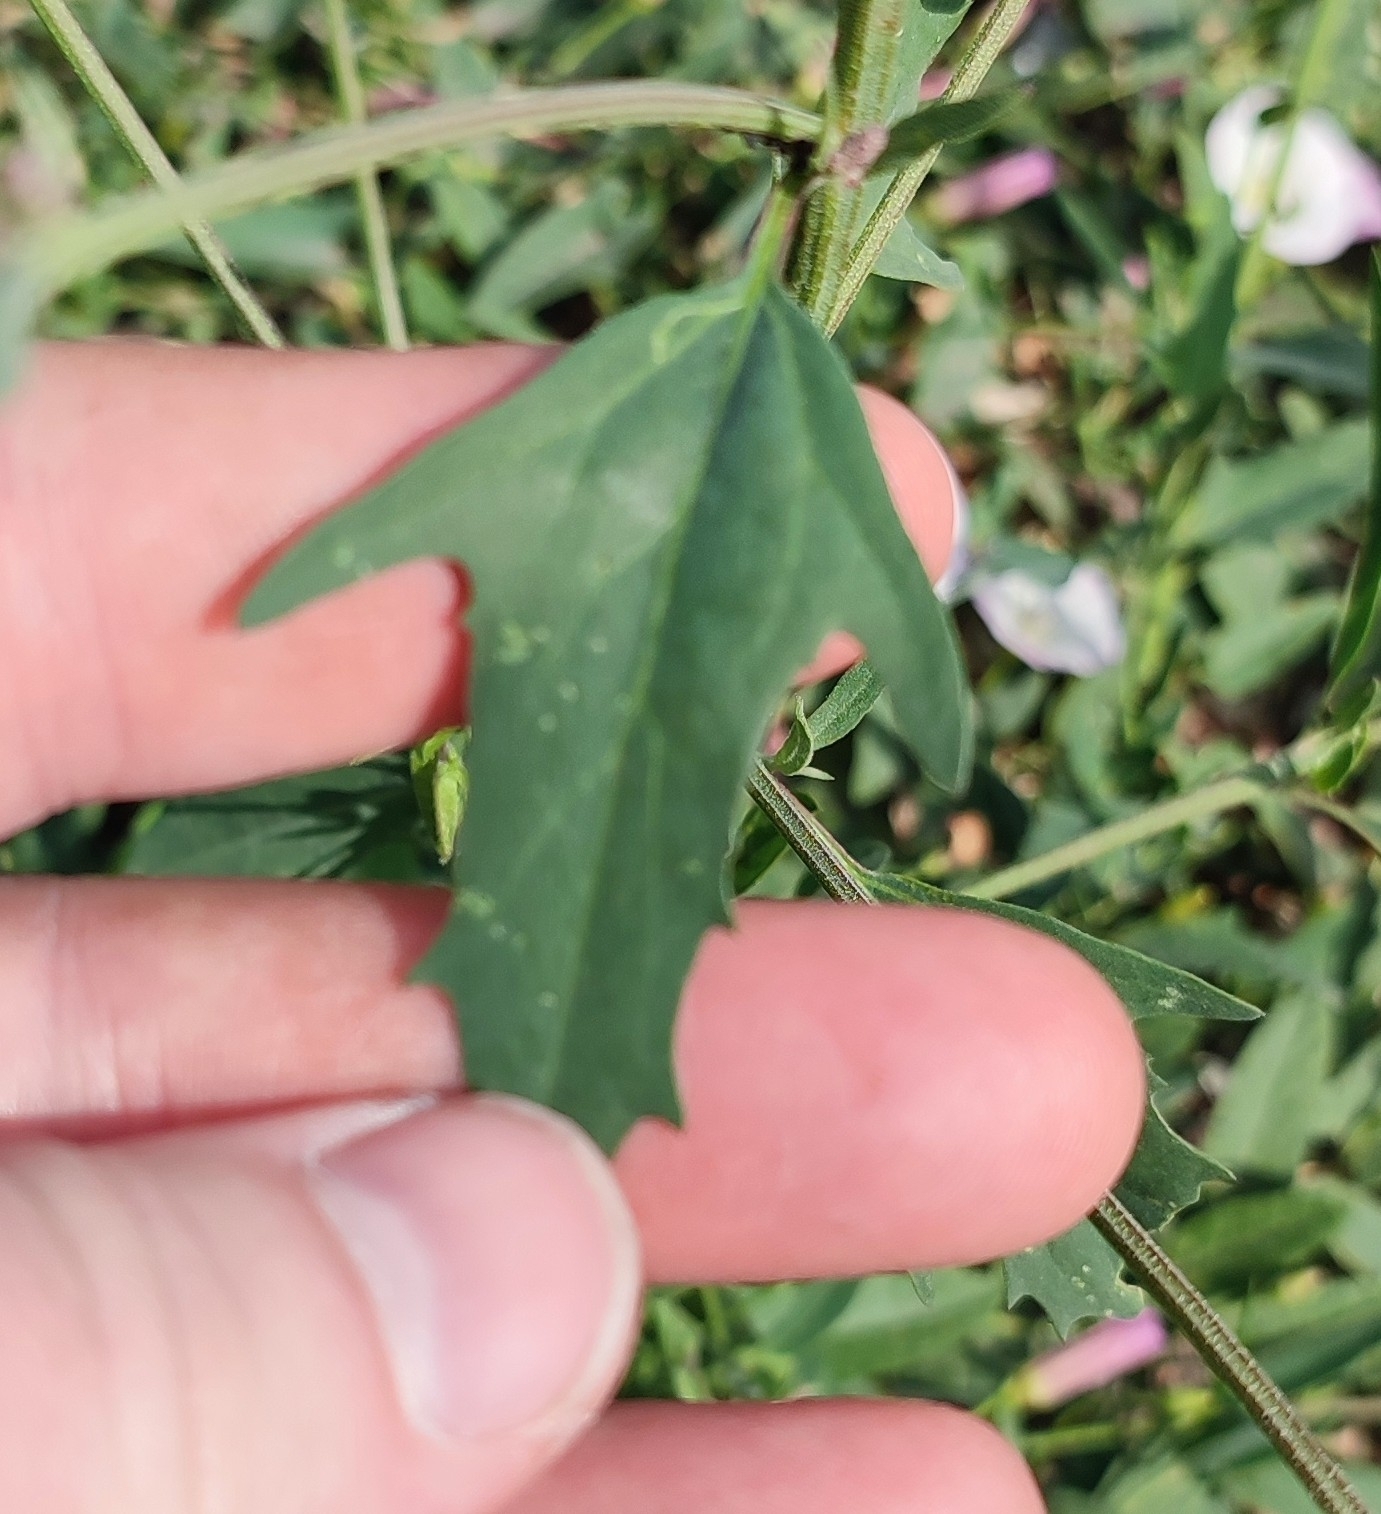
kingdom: Plantae
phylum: Tracheophyta
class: Magnoliopsida
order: Caryophyllales
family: Amaranthaceae
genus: Atriplex
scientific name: Atriplex patula
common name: Common orache
